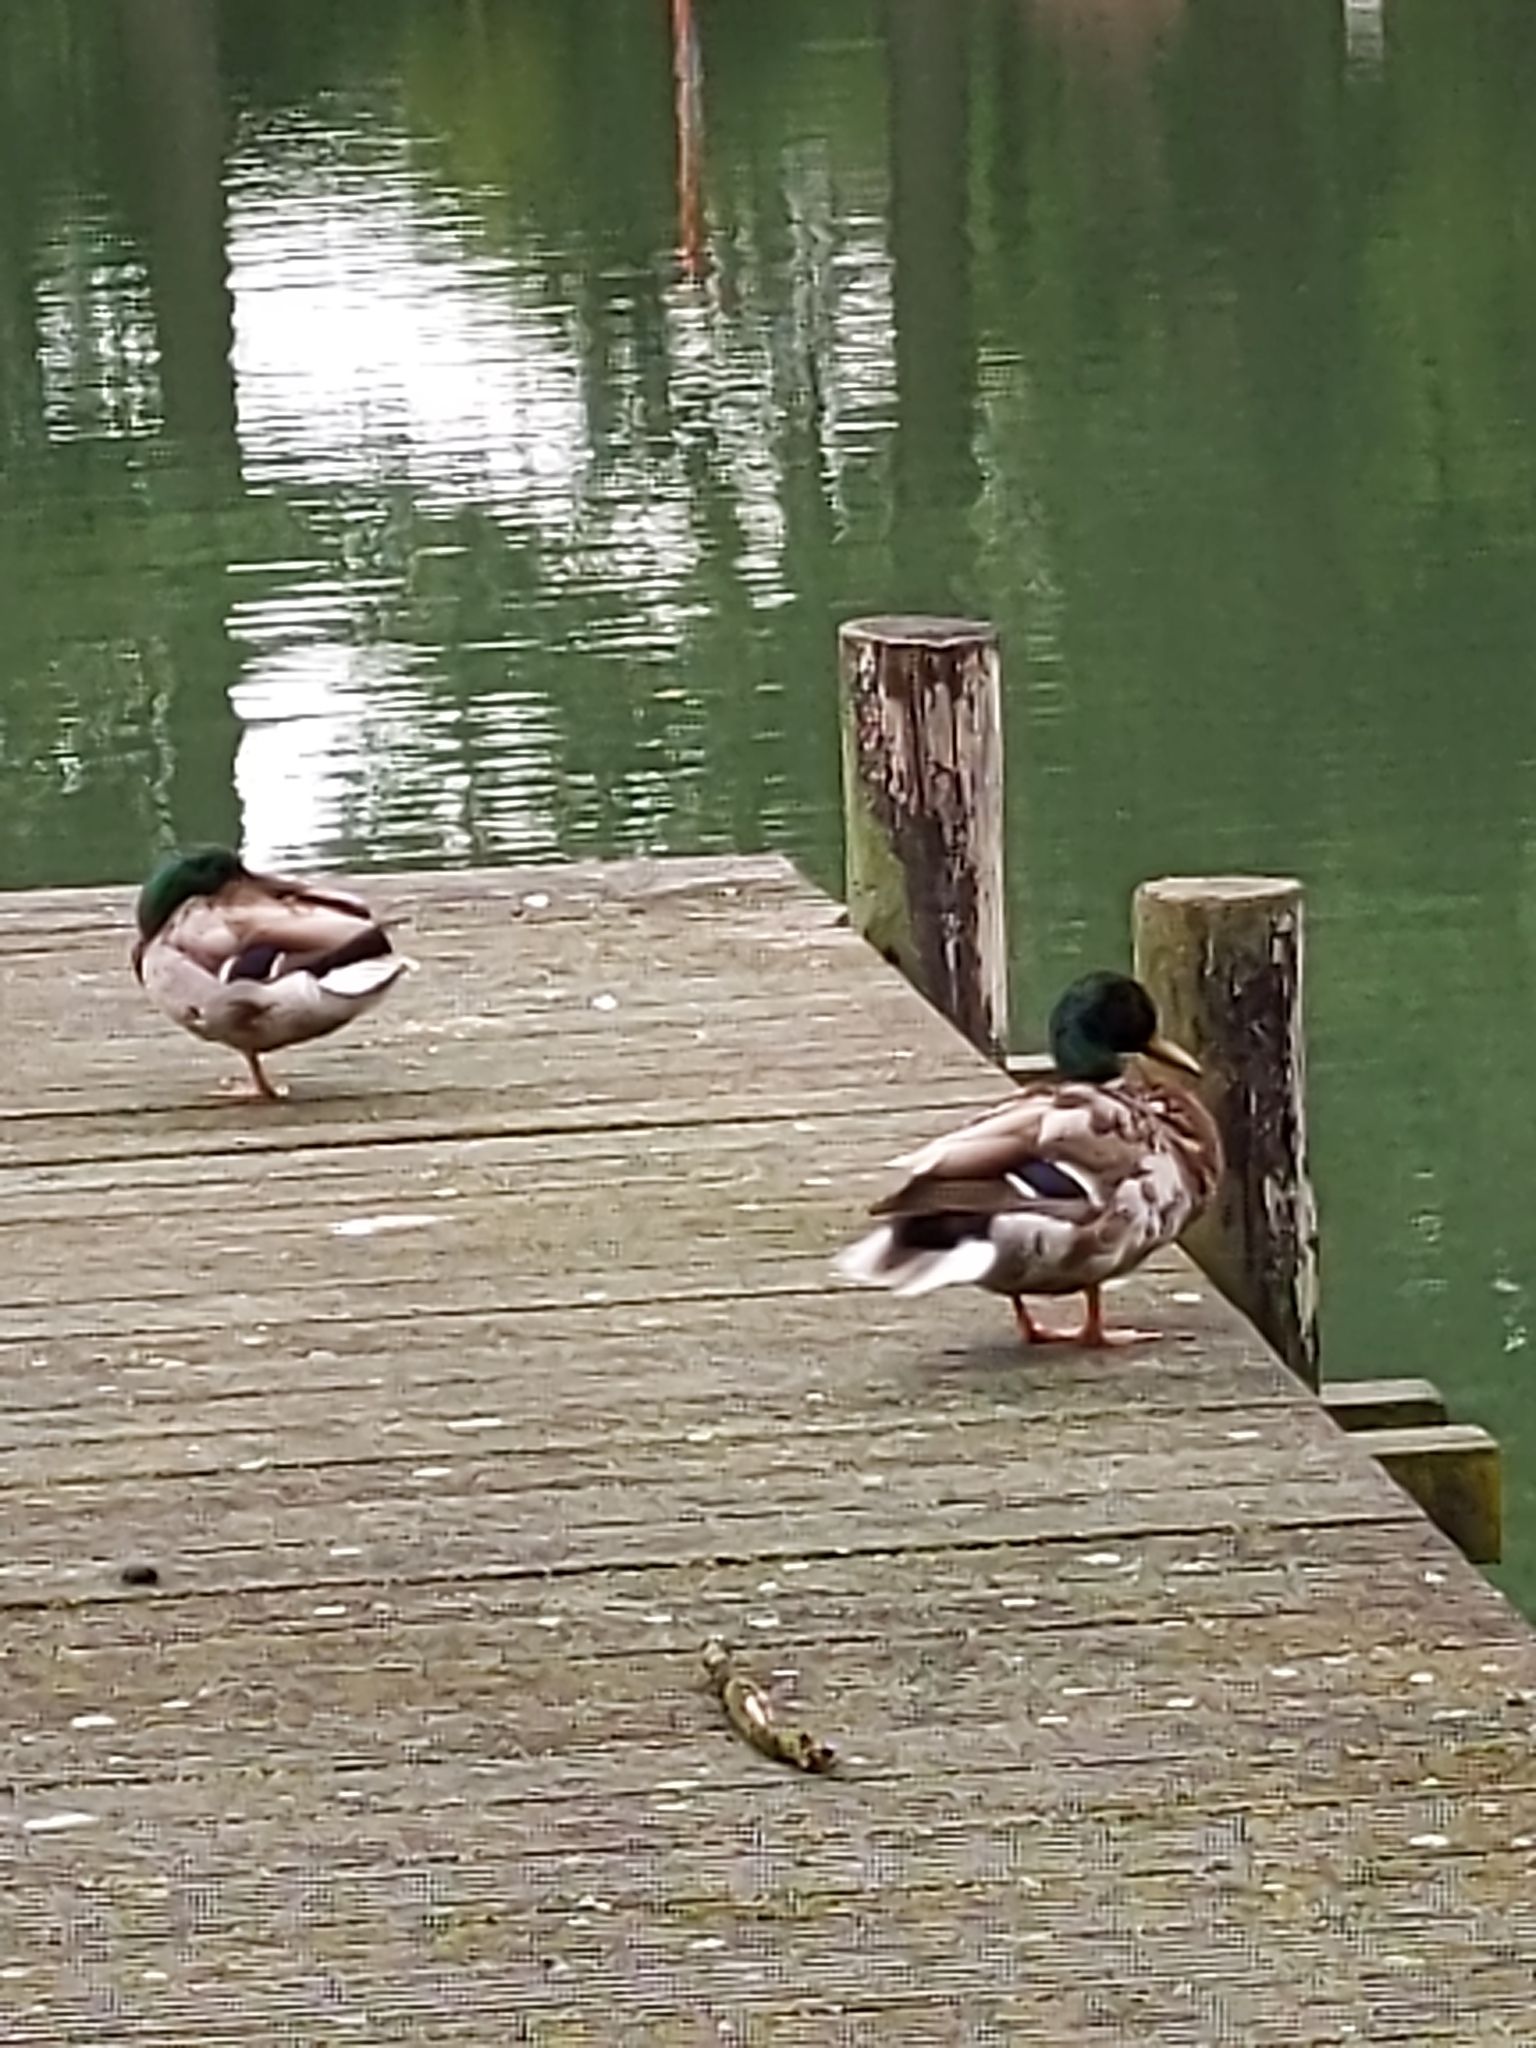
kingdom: Animalia
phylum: Chordata
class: Aves
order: Anseriformes
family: Anatidae
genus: Anas
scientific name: Anas platyrhynchos
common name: Mallard
